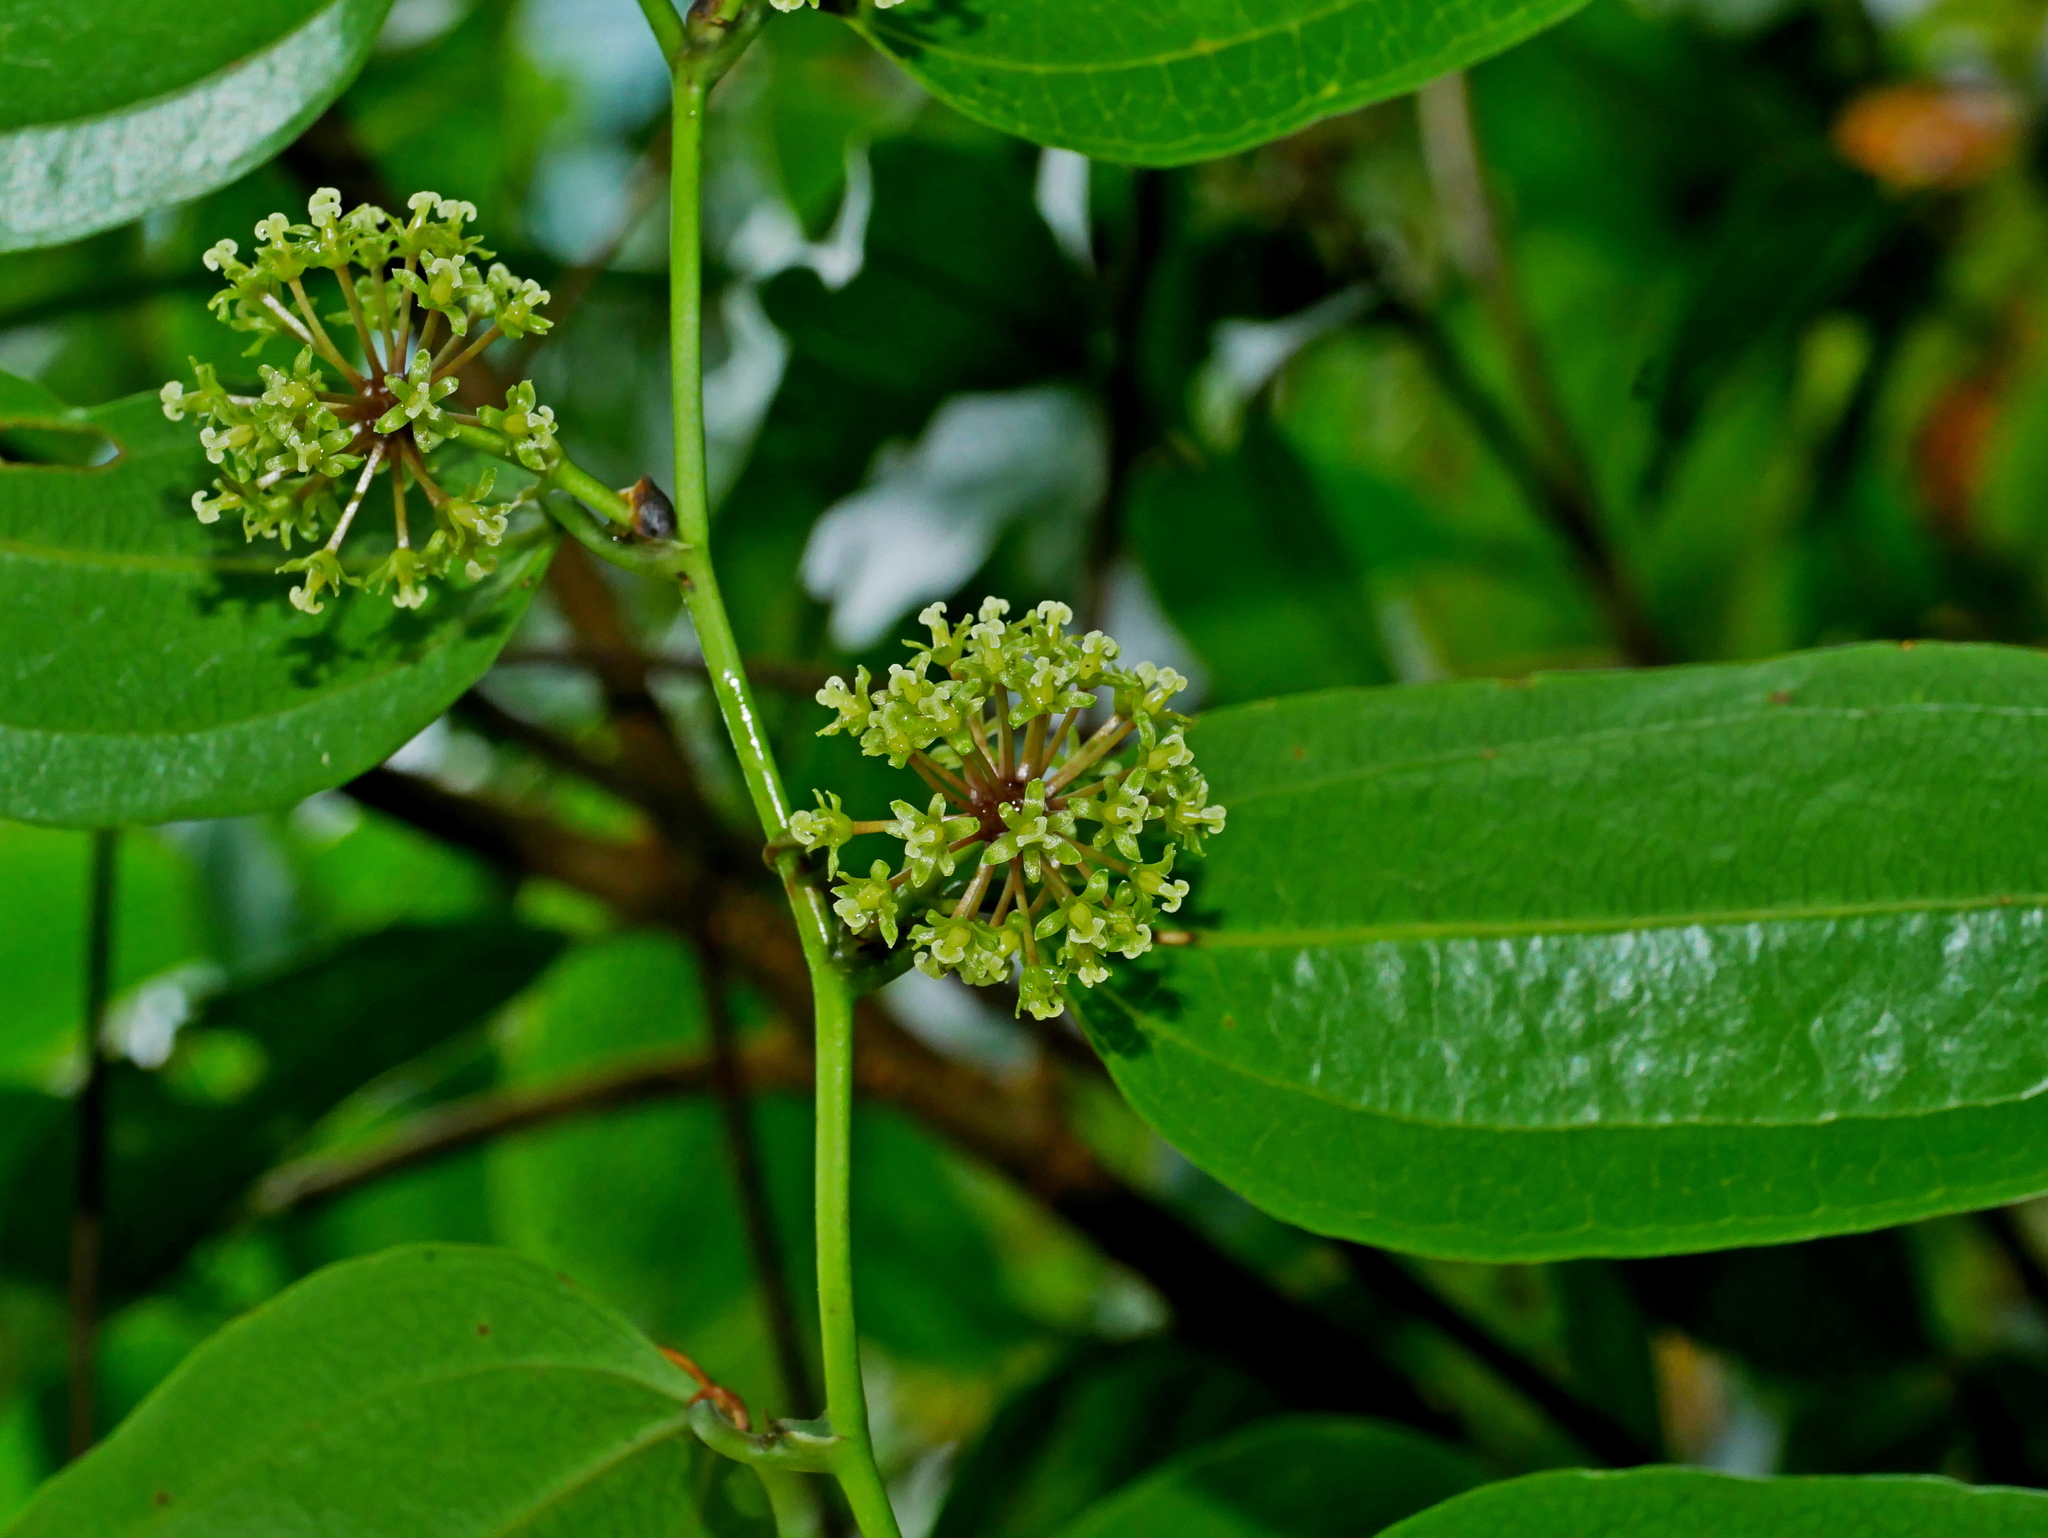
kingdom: Plantae
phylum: Tracheophyta
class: Liliopsida
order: Liliales
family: Smilacaceae
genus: Smilax
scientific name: Smilax lanceifolia
